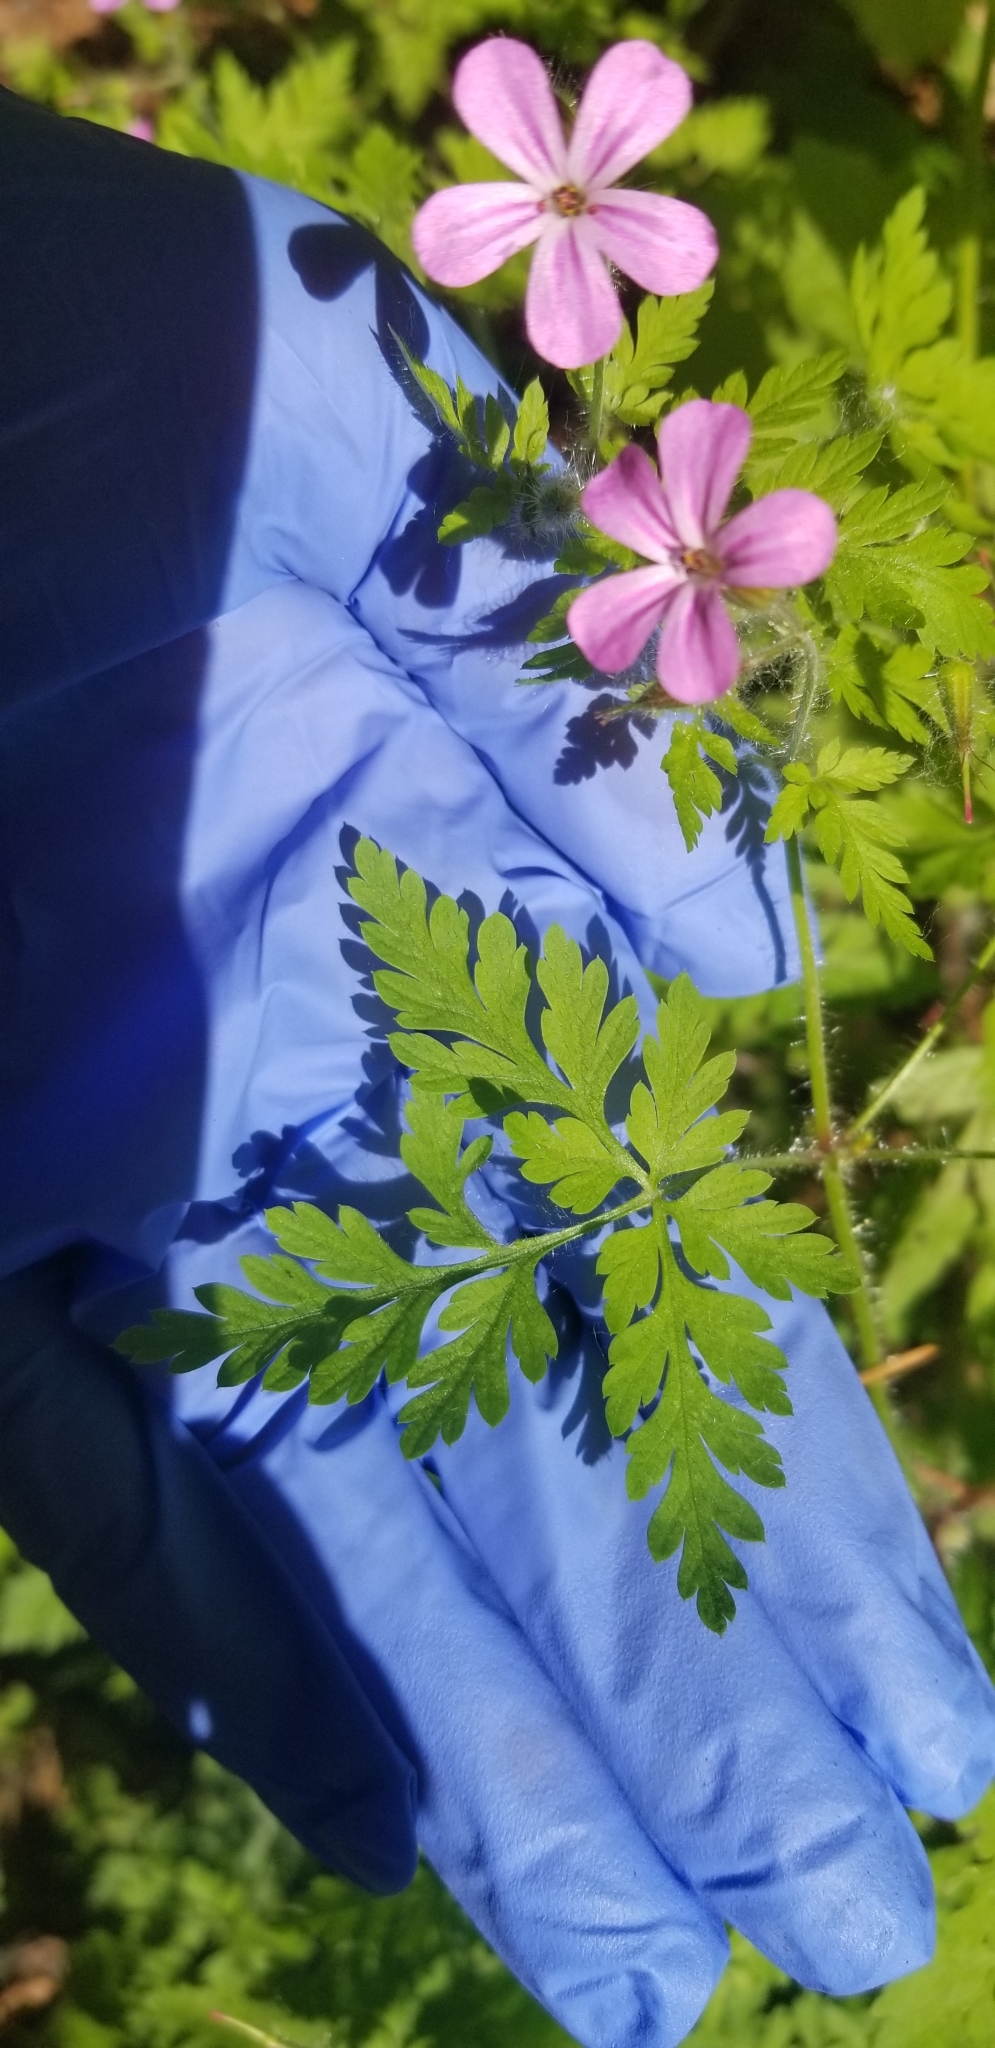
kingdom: Plantae
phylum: Tracheophyta
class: Magnoliopsida
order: Geraniales
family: Geraniaceae
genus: Geranium
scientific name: Geranium robertianum
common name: Herb-robert
